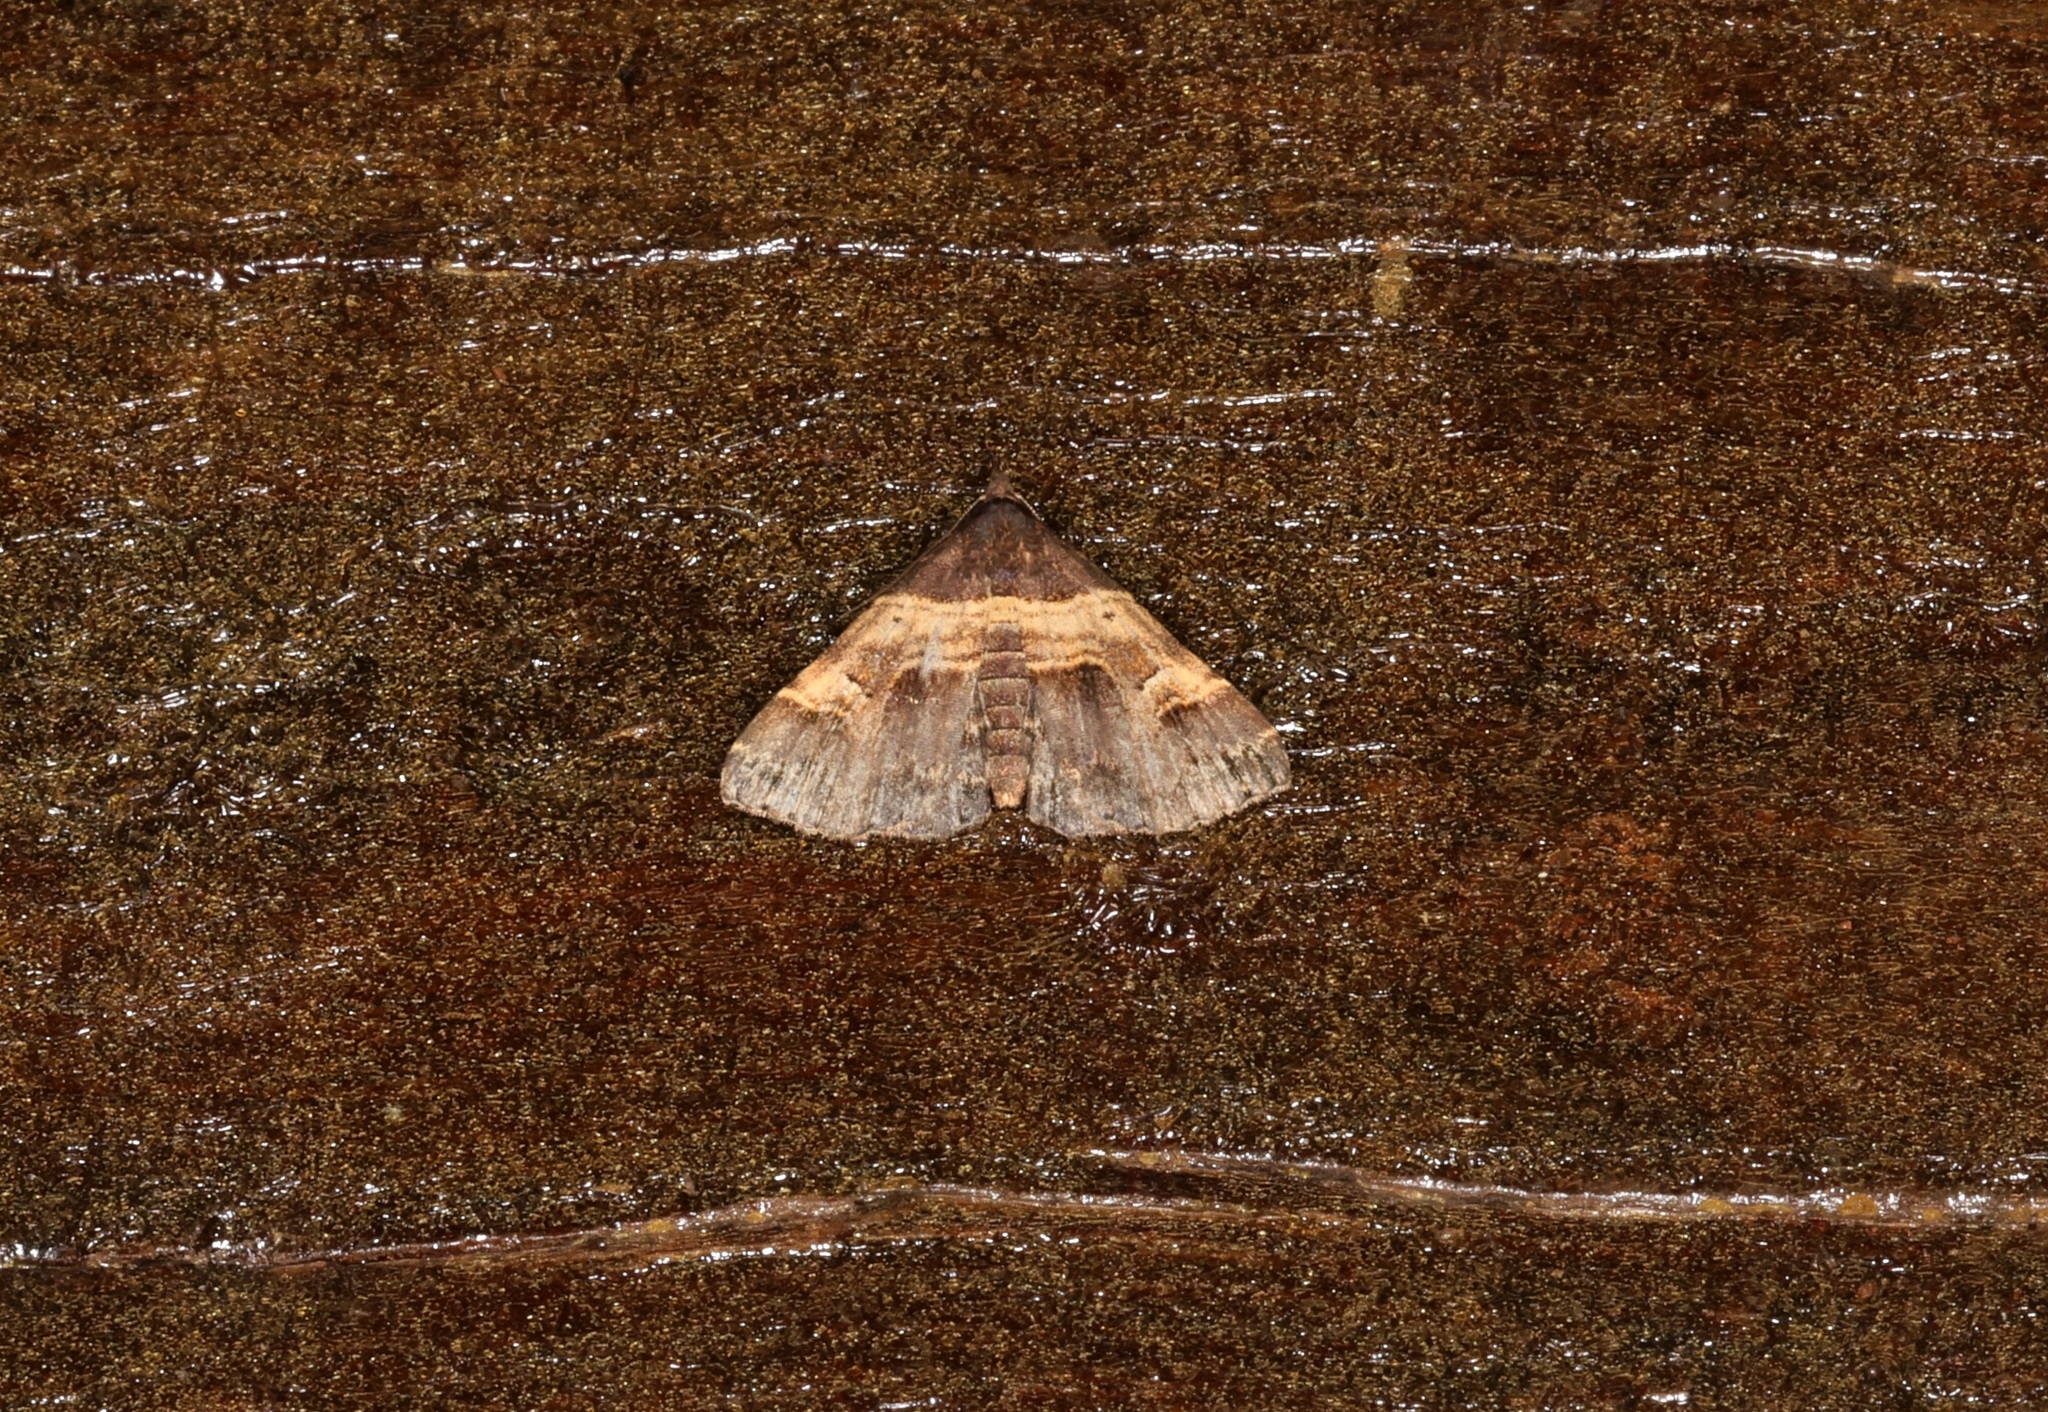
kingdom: Animalia
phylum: Arthropoda
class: Insecta
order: Lepidoptera
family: Erebidae
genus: Bertula
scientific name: Bertula abjudicalis
